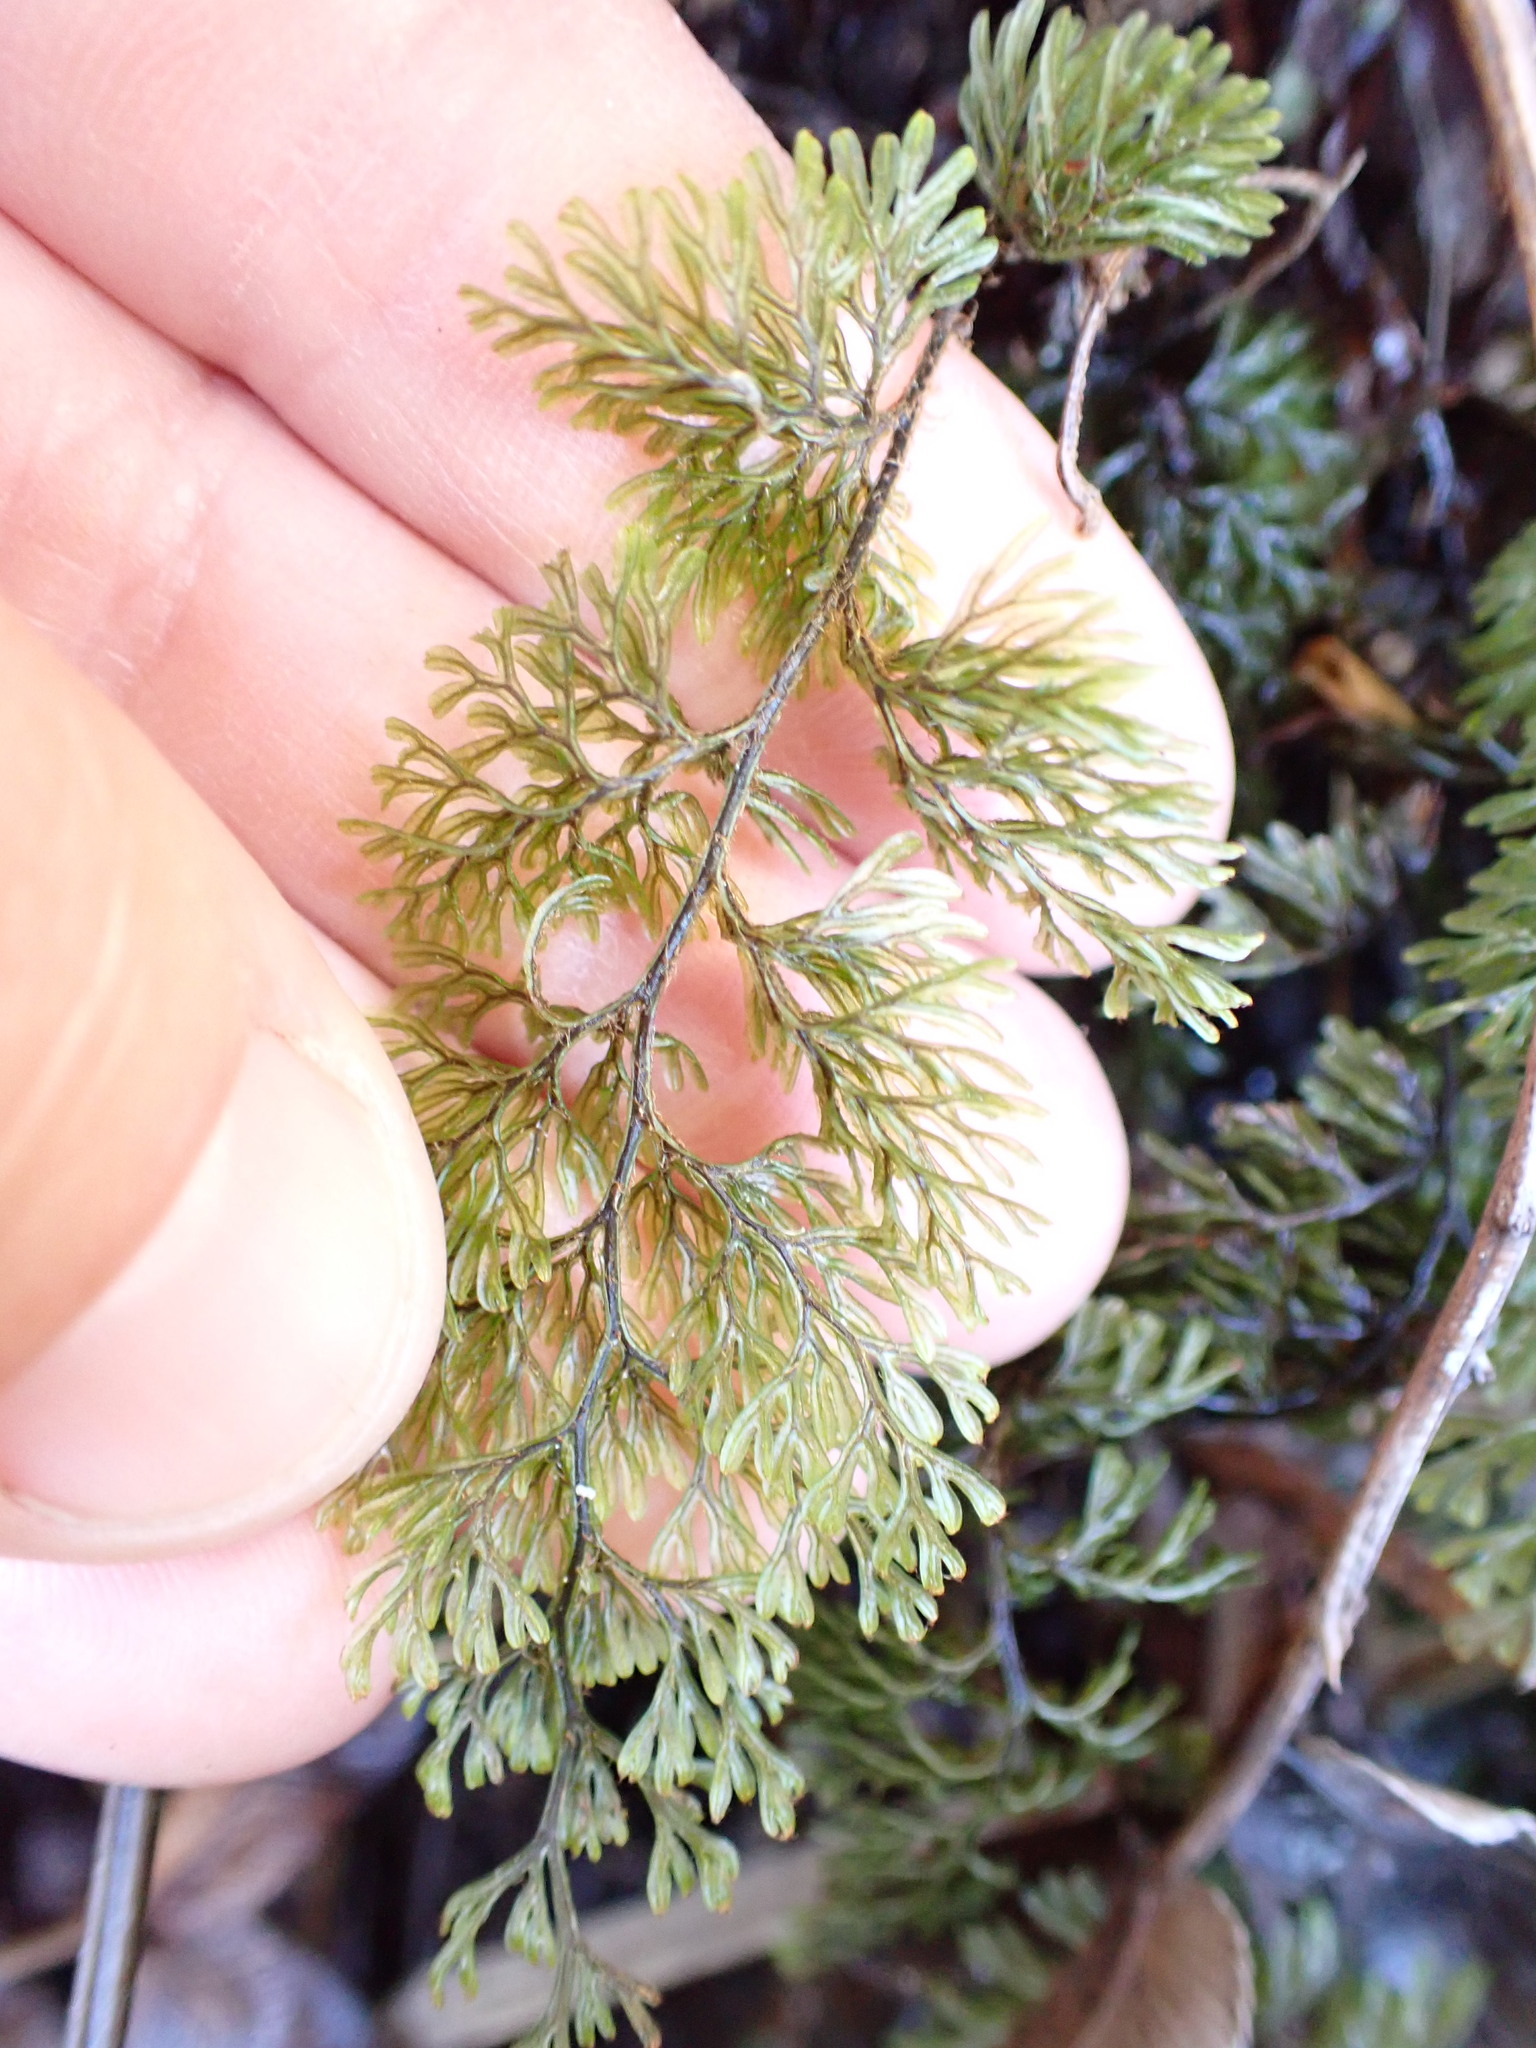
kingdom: Plantae
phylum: Tracheophyta
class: Polypodiopsida
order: Hymenophyllales
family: Hymenophyllaceae
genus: Hymenophyllum
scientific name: Hymenophyllum villosum
